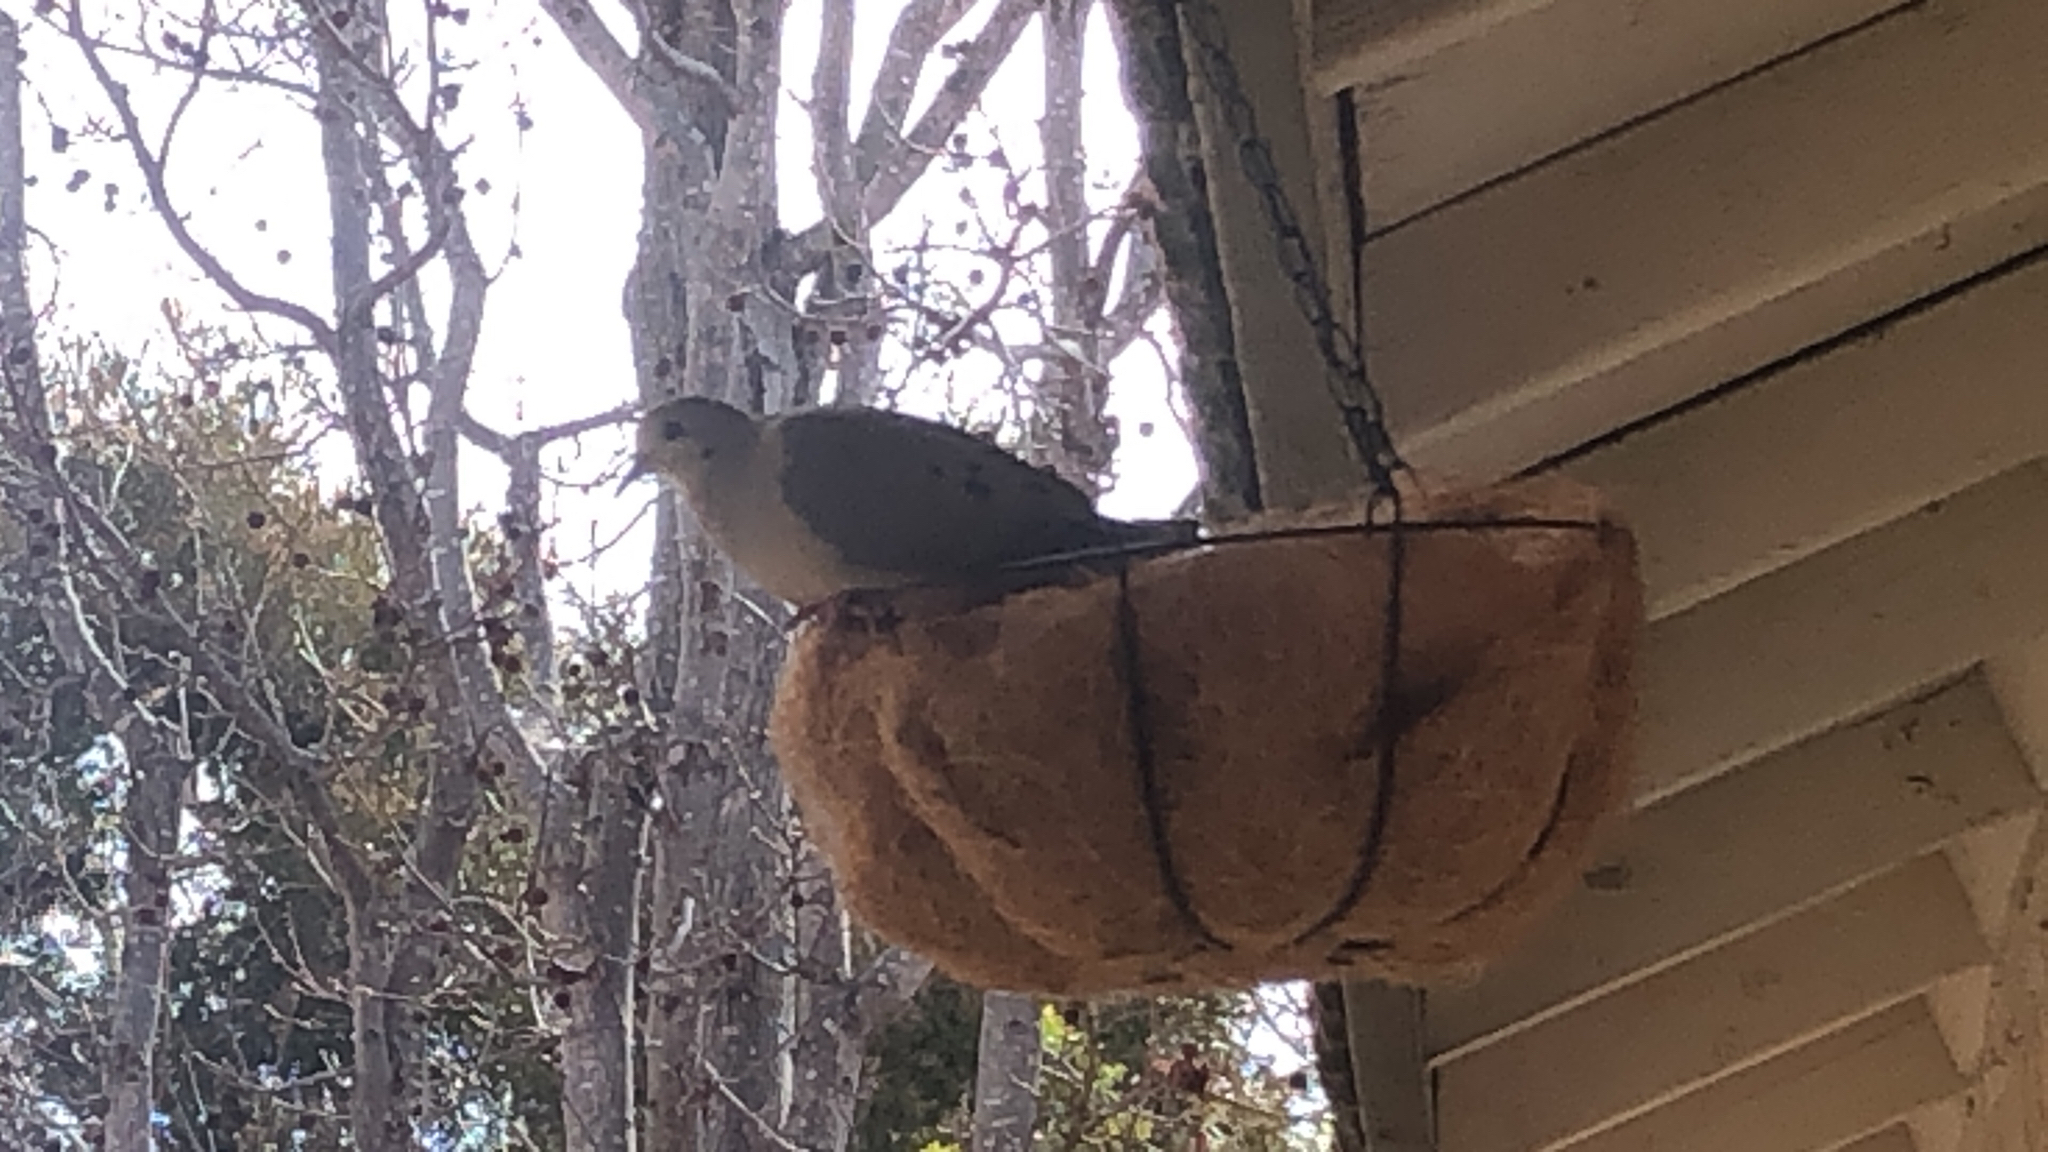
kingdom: Animalia
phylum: Chordata
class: Aves
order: Columbiformes
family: Columbidae
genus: Zenaida
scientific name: Zenaida macroura
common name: Mourning dove
